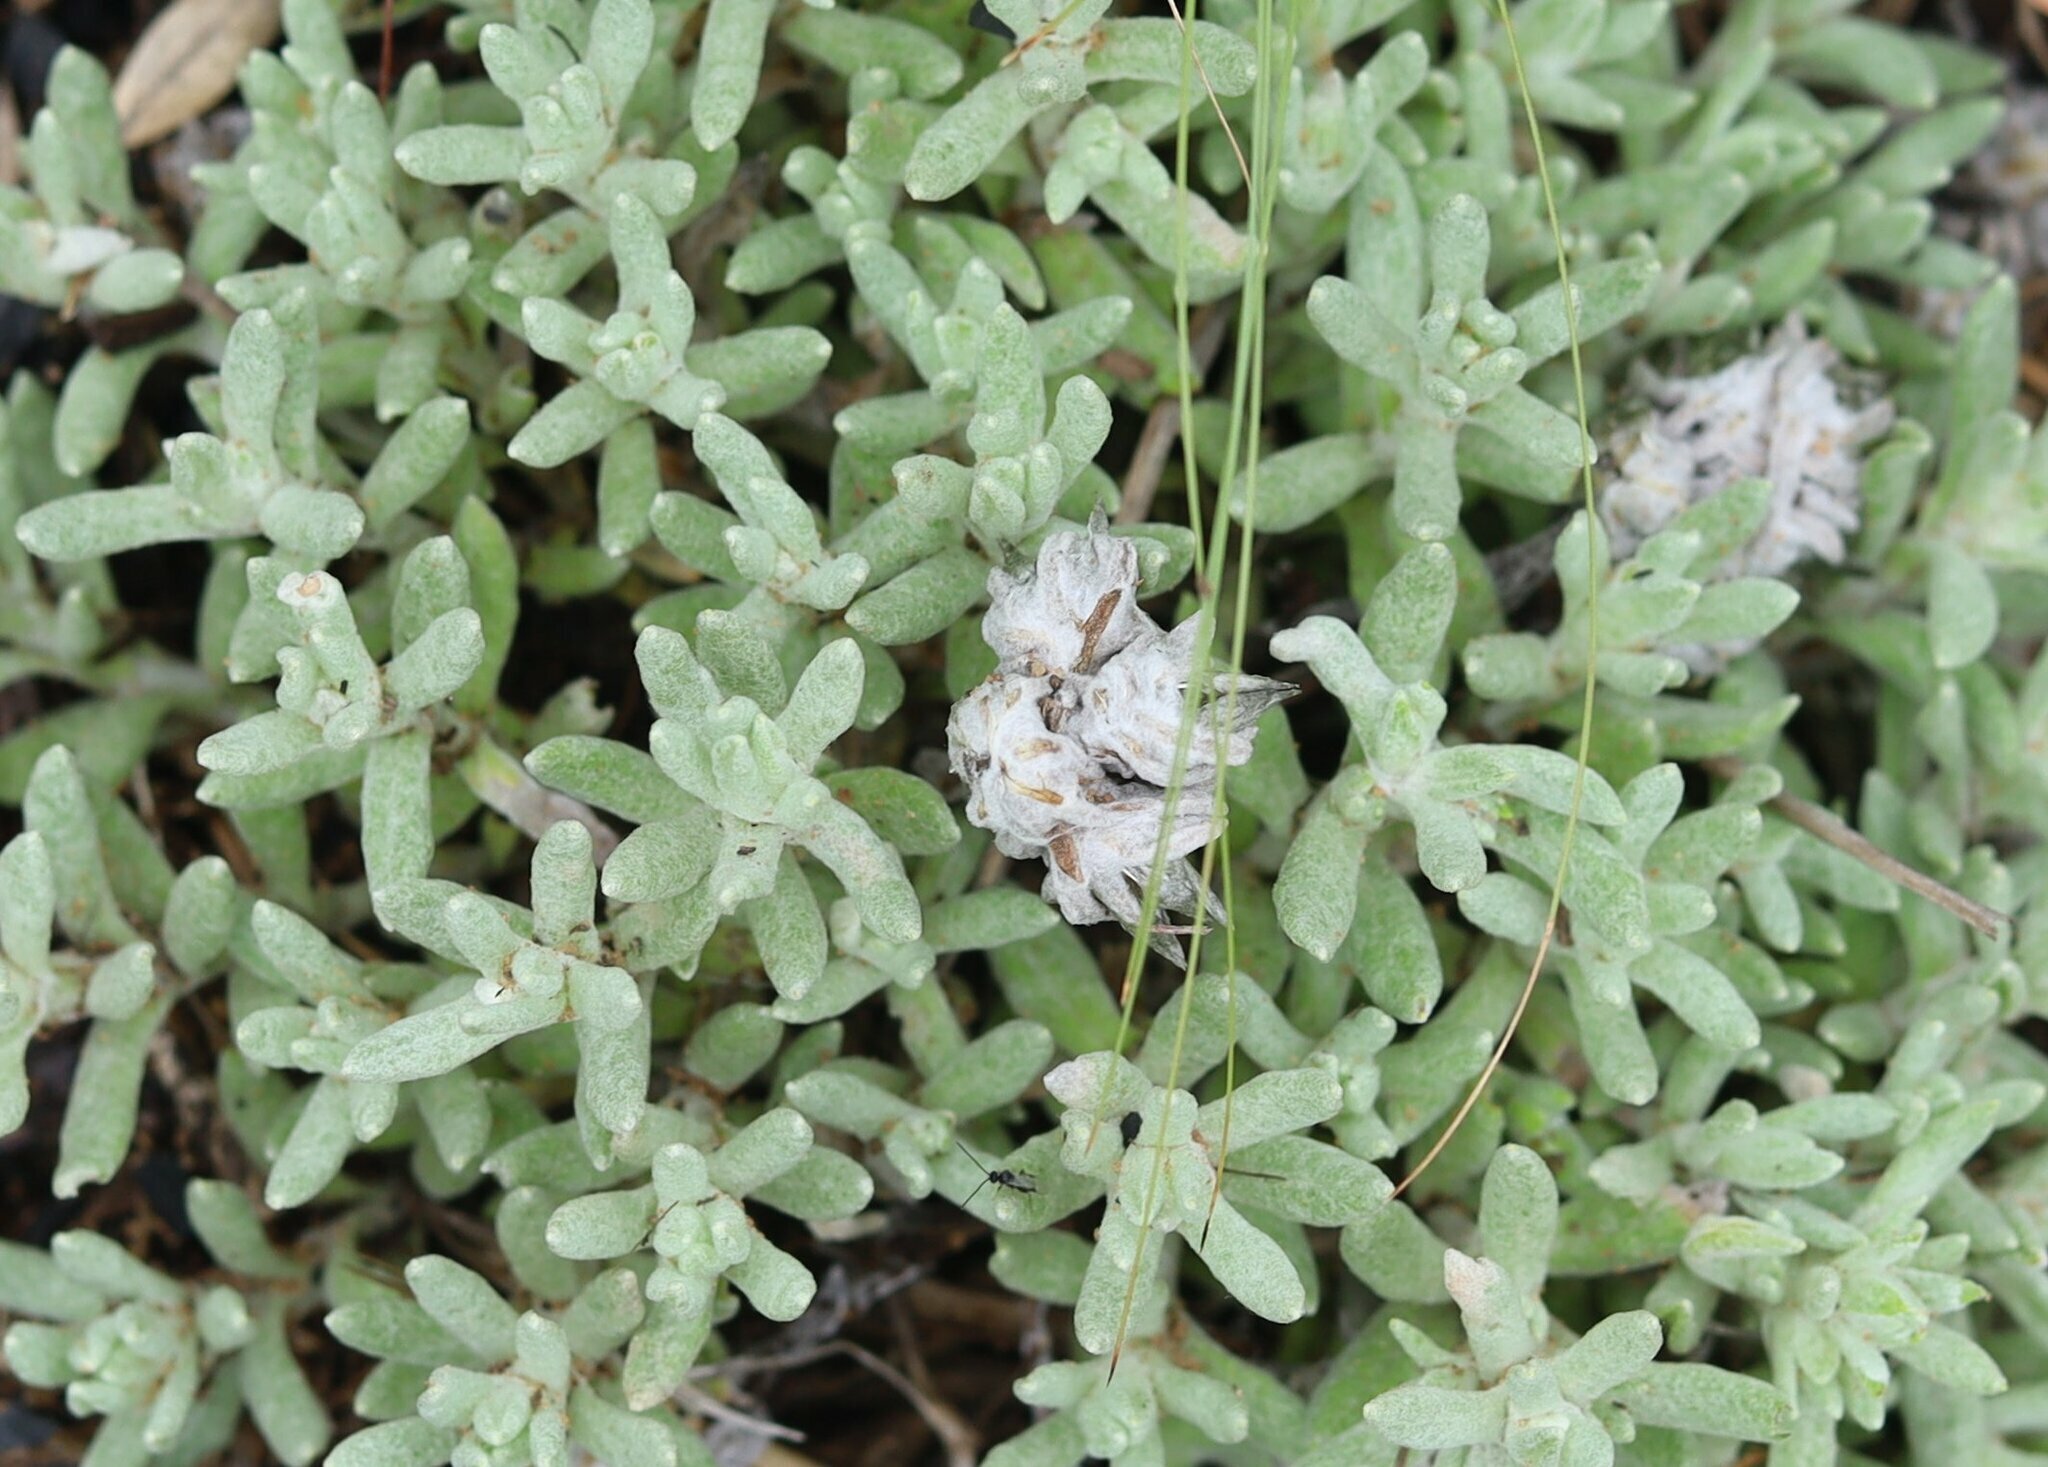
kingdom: Plantae
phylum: Tracheophyta
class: Magnoliopsida
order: Asterales
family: Asteraceae
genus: Helichrysum
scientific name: Helichrysum cerastioides
